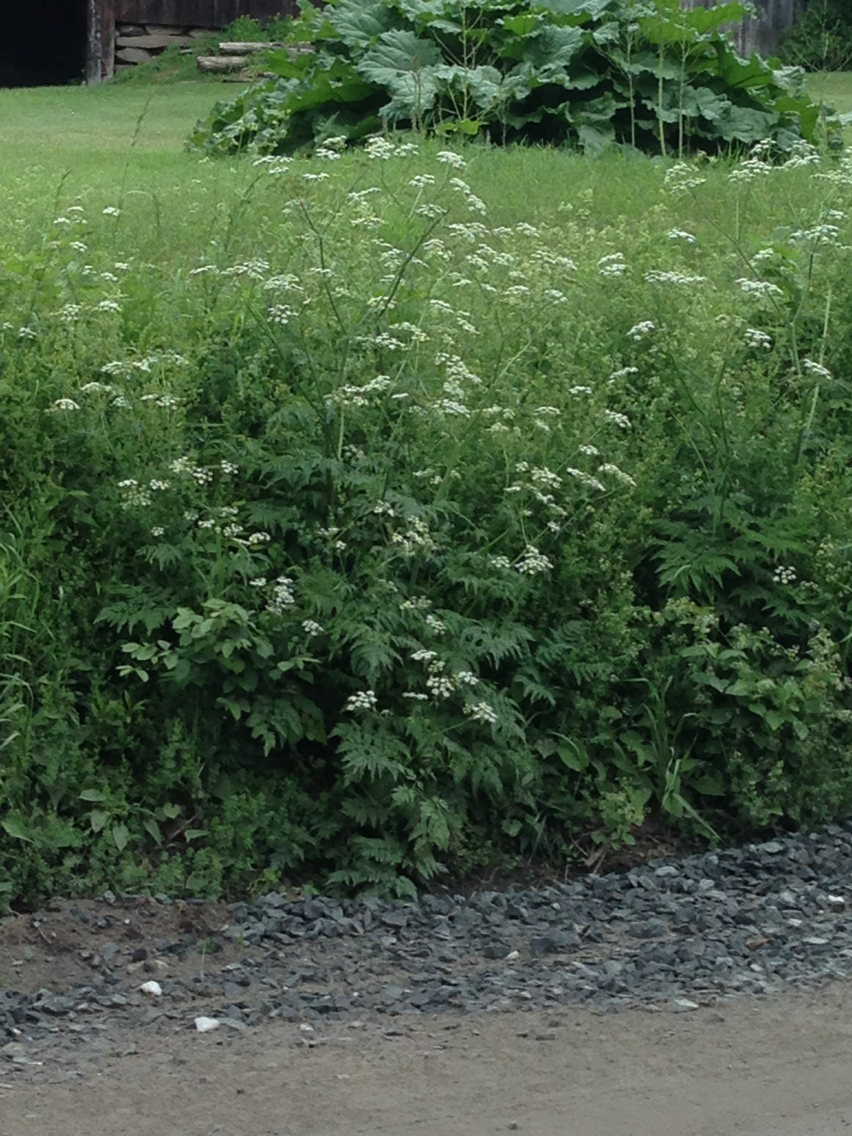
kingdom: Plantae
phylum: Tracheophyta
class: Magnoliopsida
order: Apiales
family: Apiaceae
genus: Anthriscus
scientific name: Anthriscus sylvestris
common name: Cow parsley
